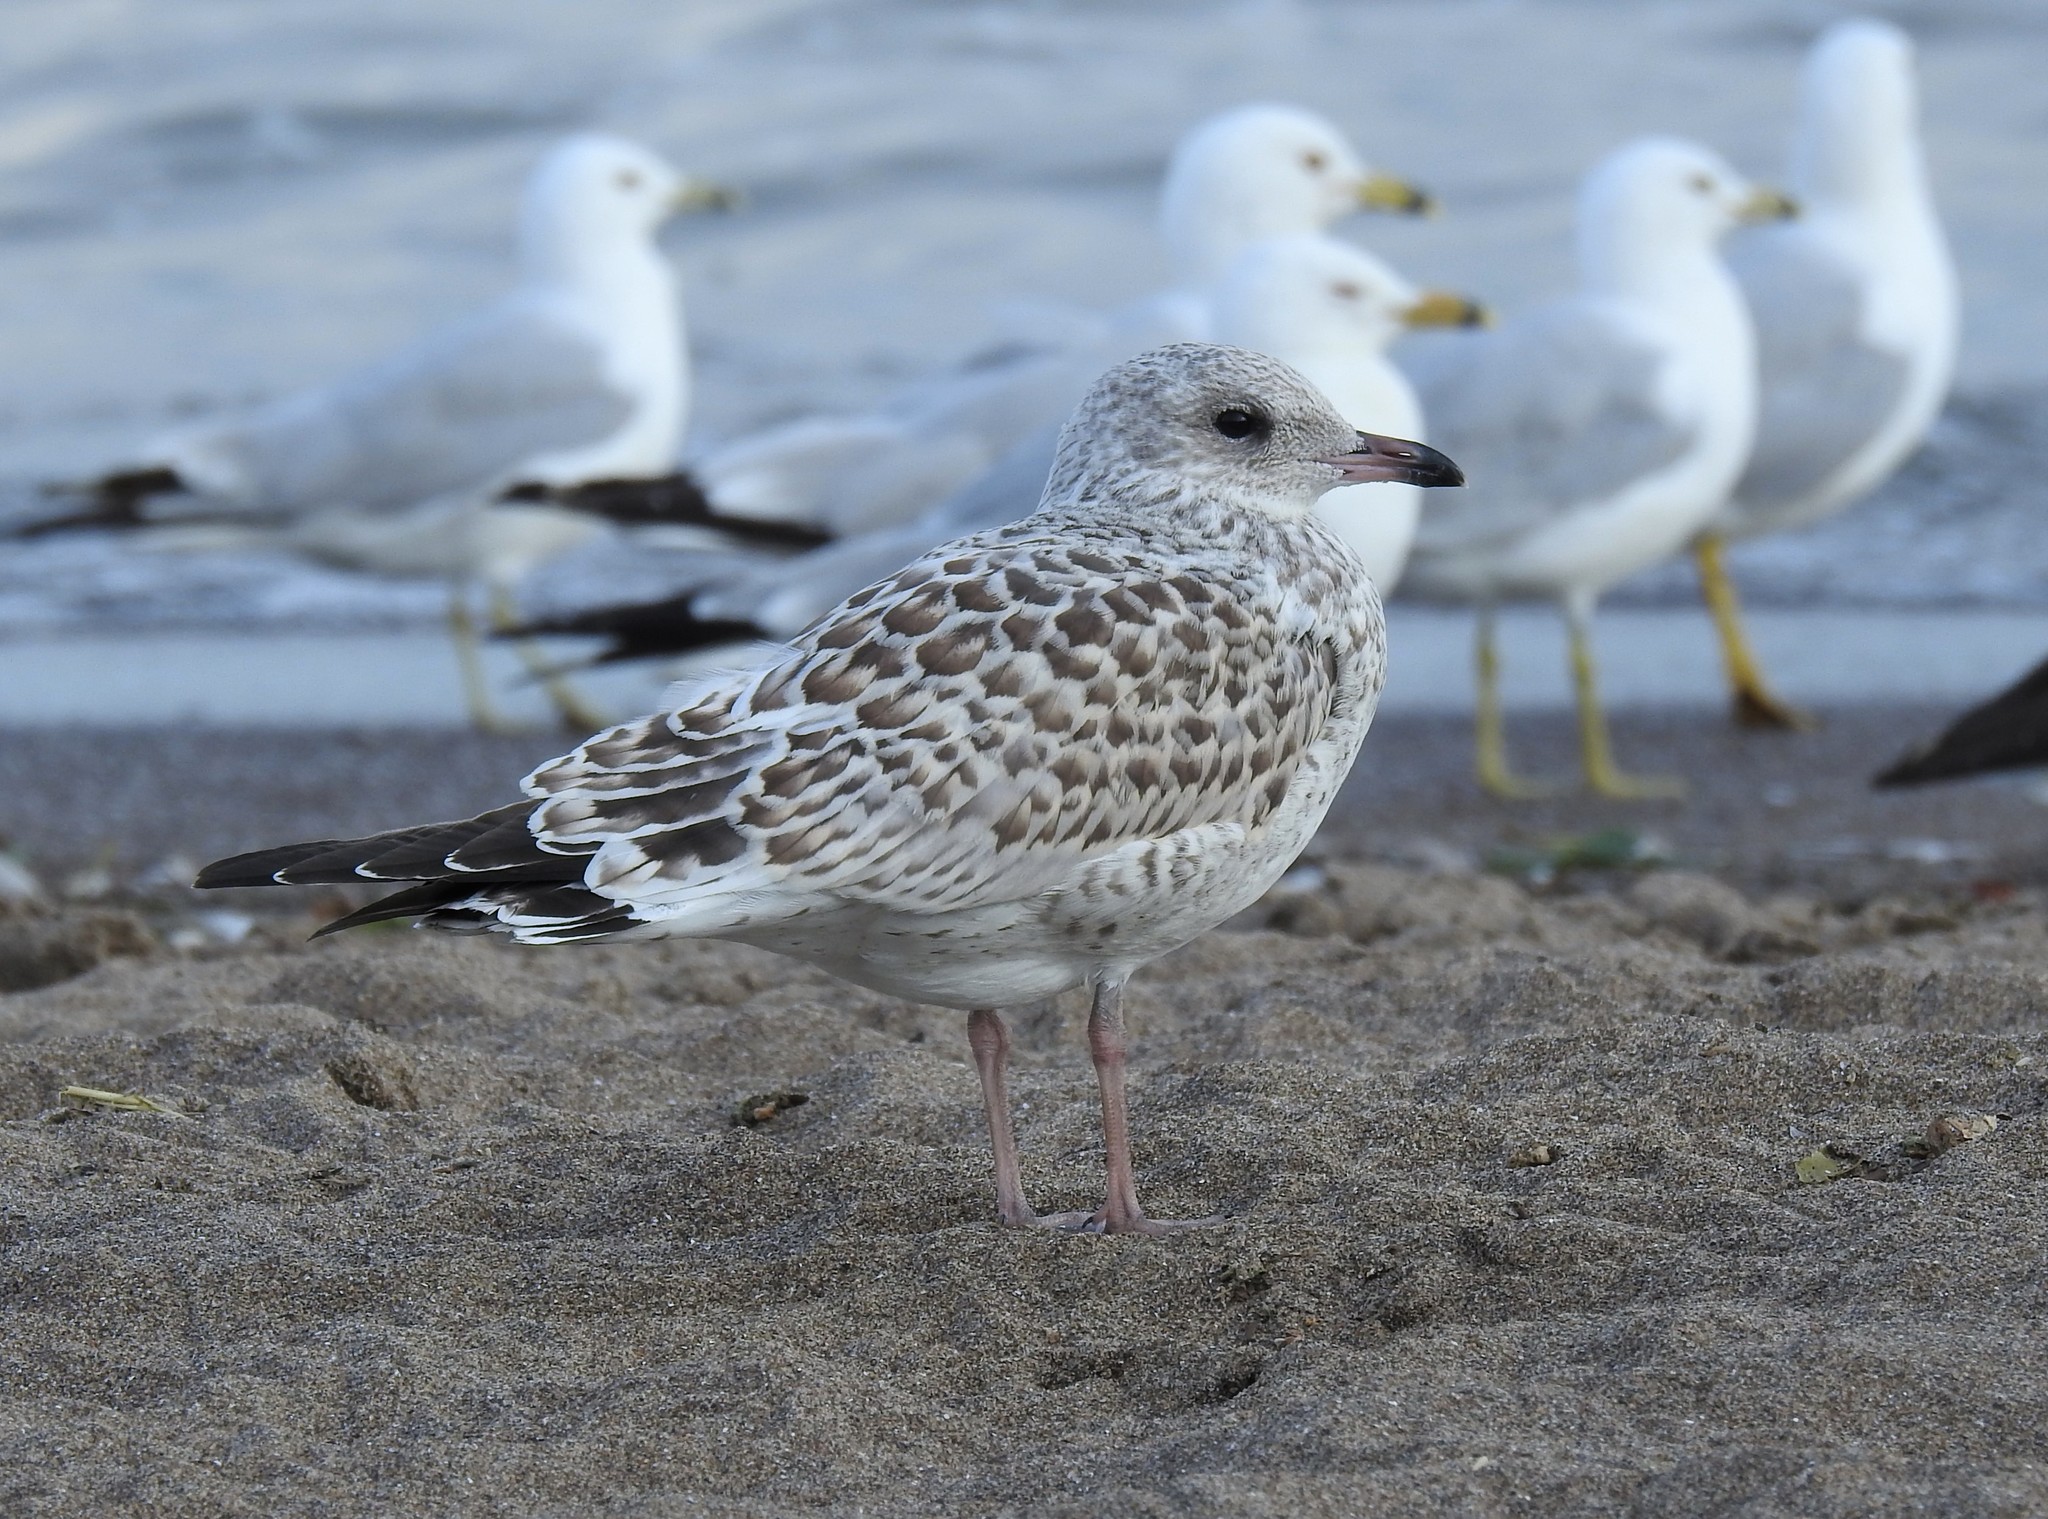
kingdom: Animalia
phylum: Chordata
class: Aves
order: Charadriiformes
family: Laridae
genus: Larus
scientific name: Larus delawarensis
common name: Ring-billed gull
